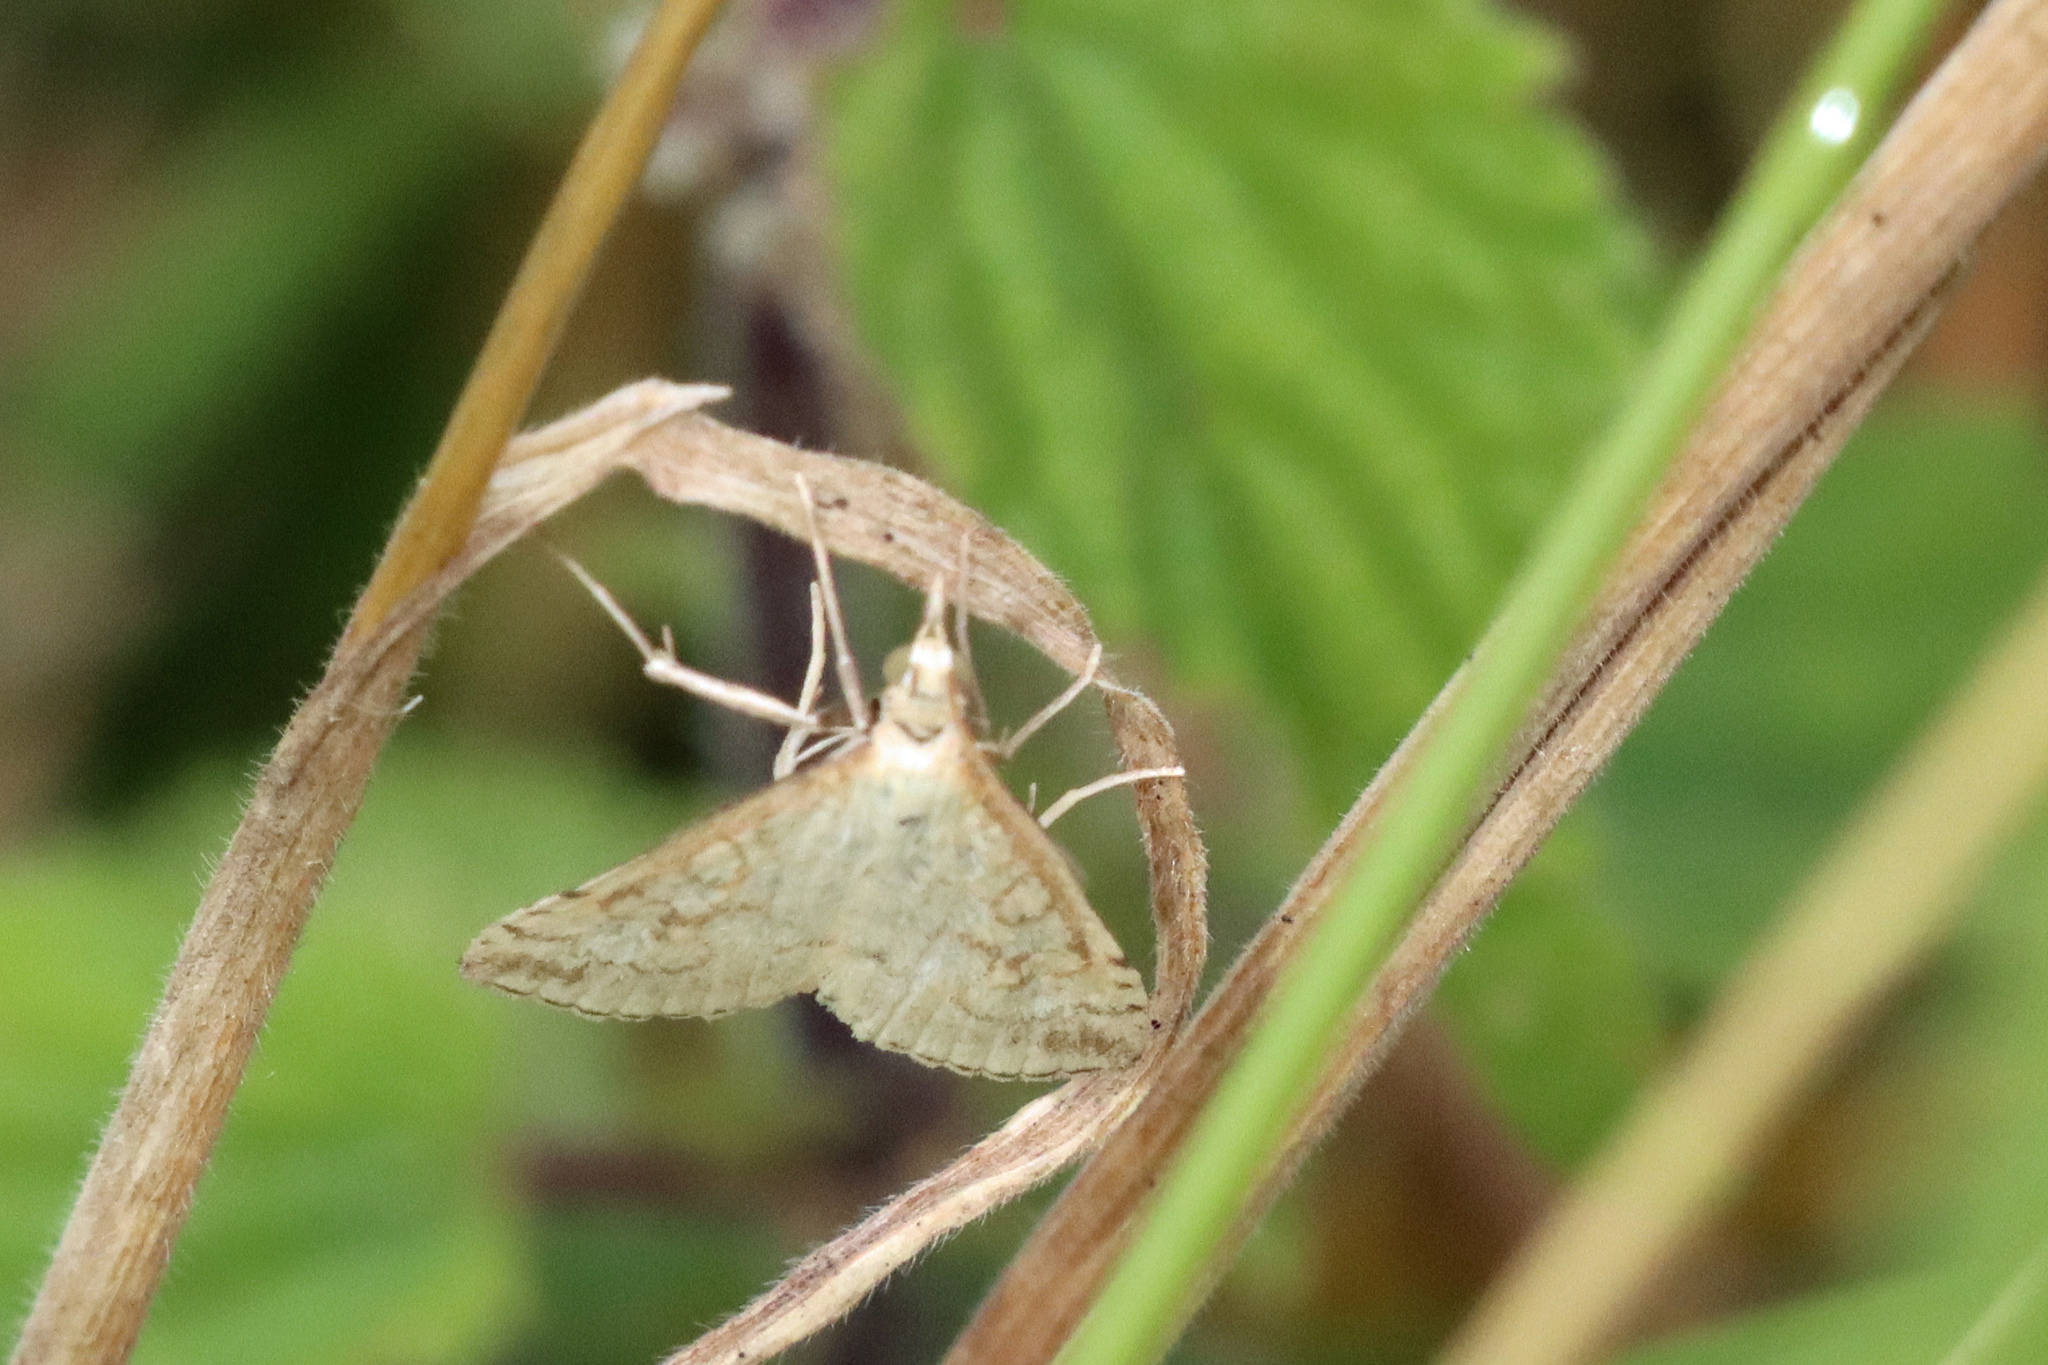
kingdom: Animalia
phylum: Arthropoda
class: Insecta
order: Lepidoptera
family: Crambidae
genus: Udea
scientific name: Udea lutealis
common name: Pale straw pearl
